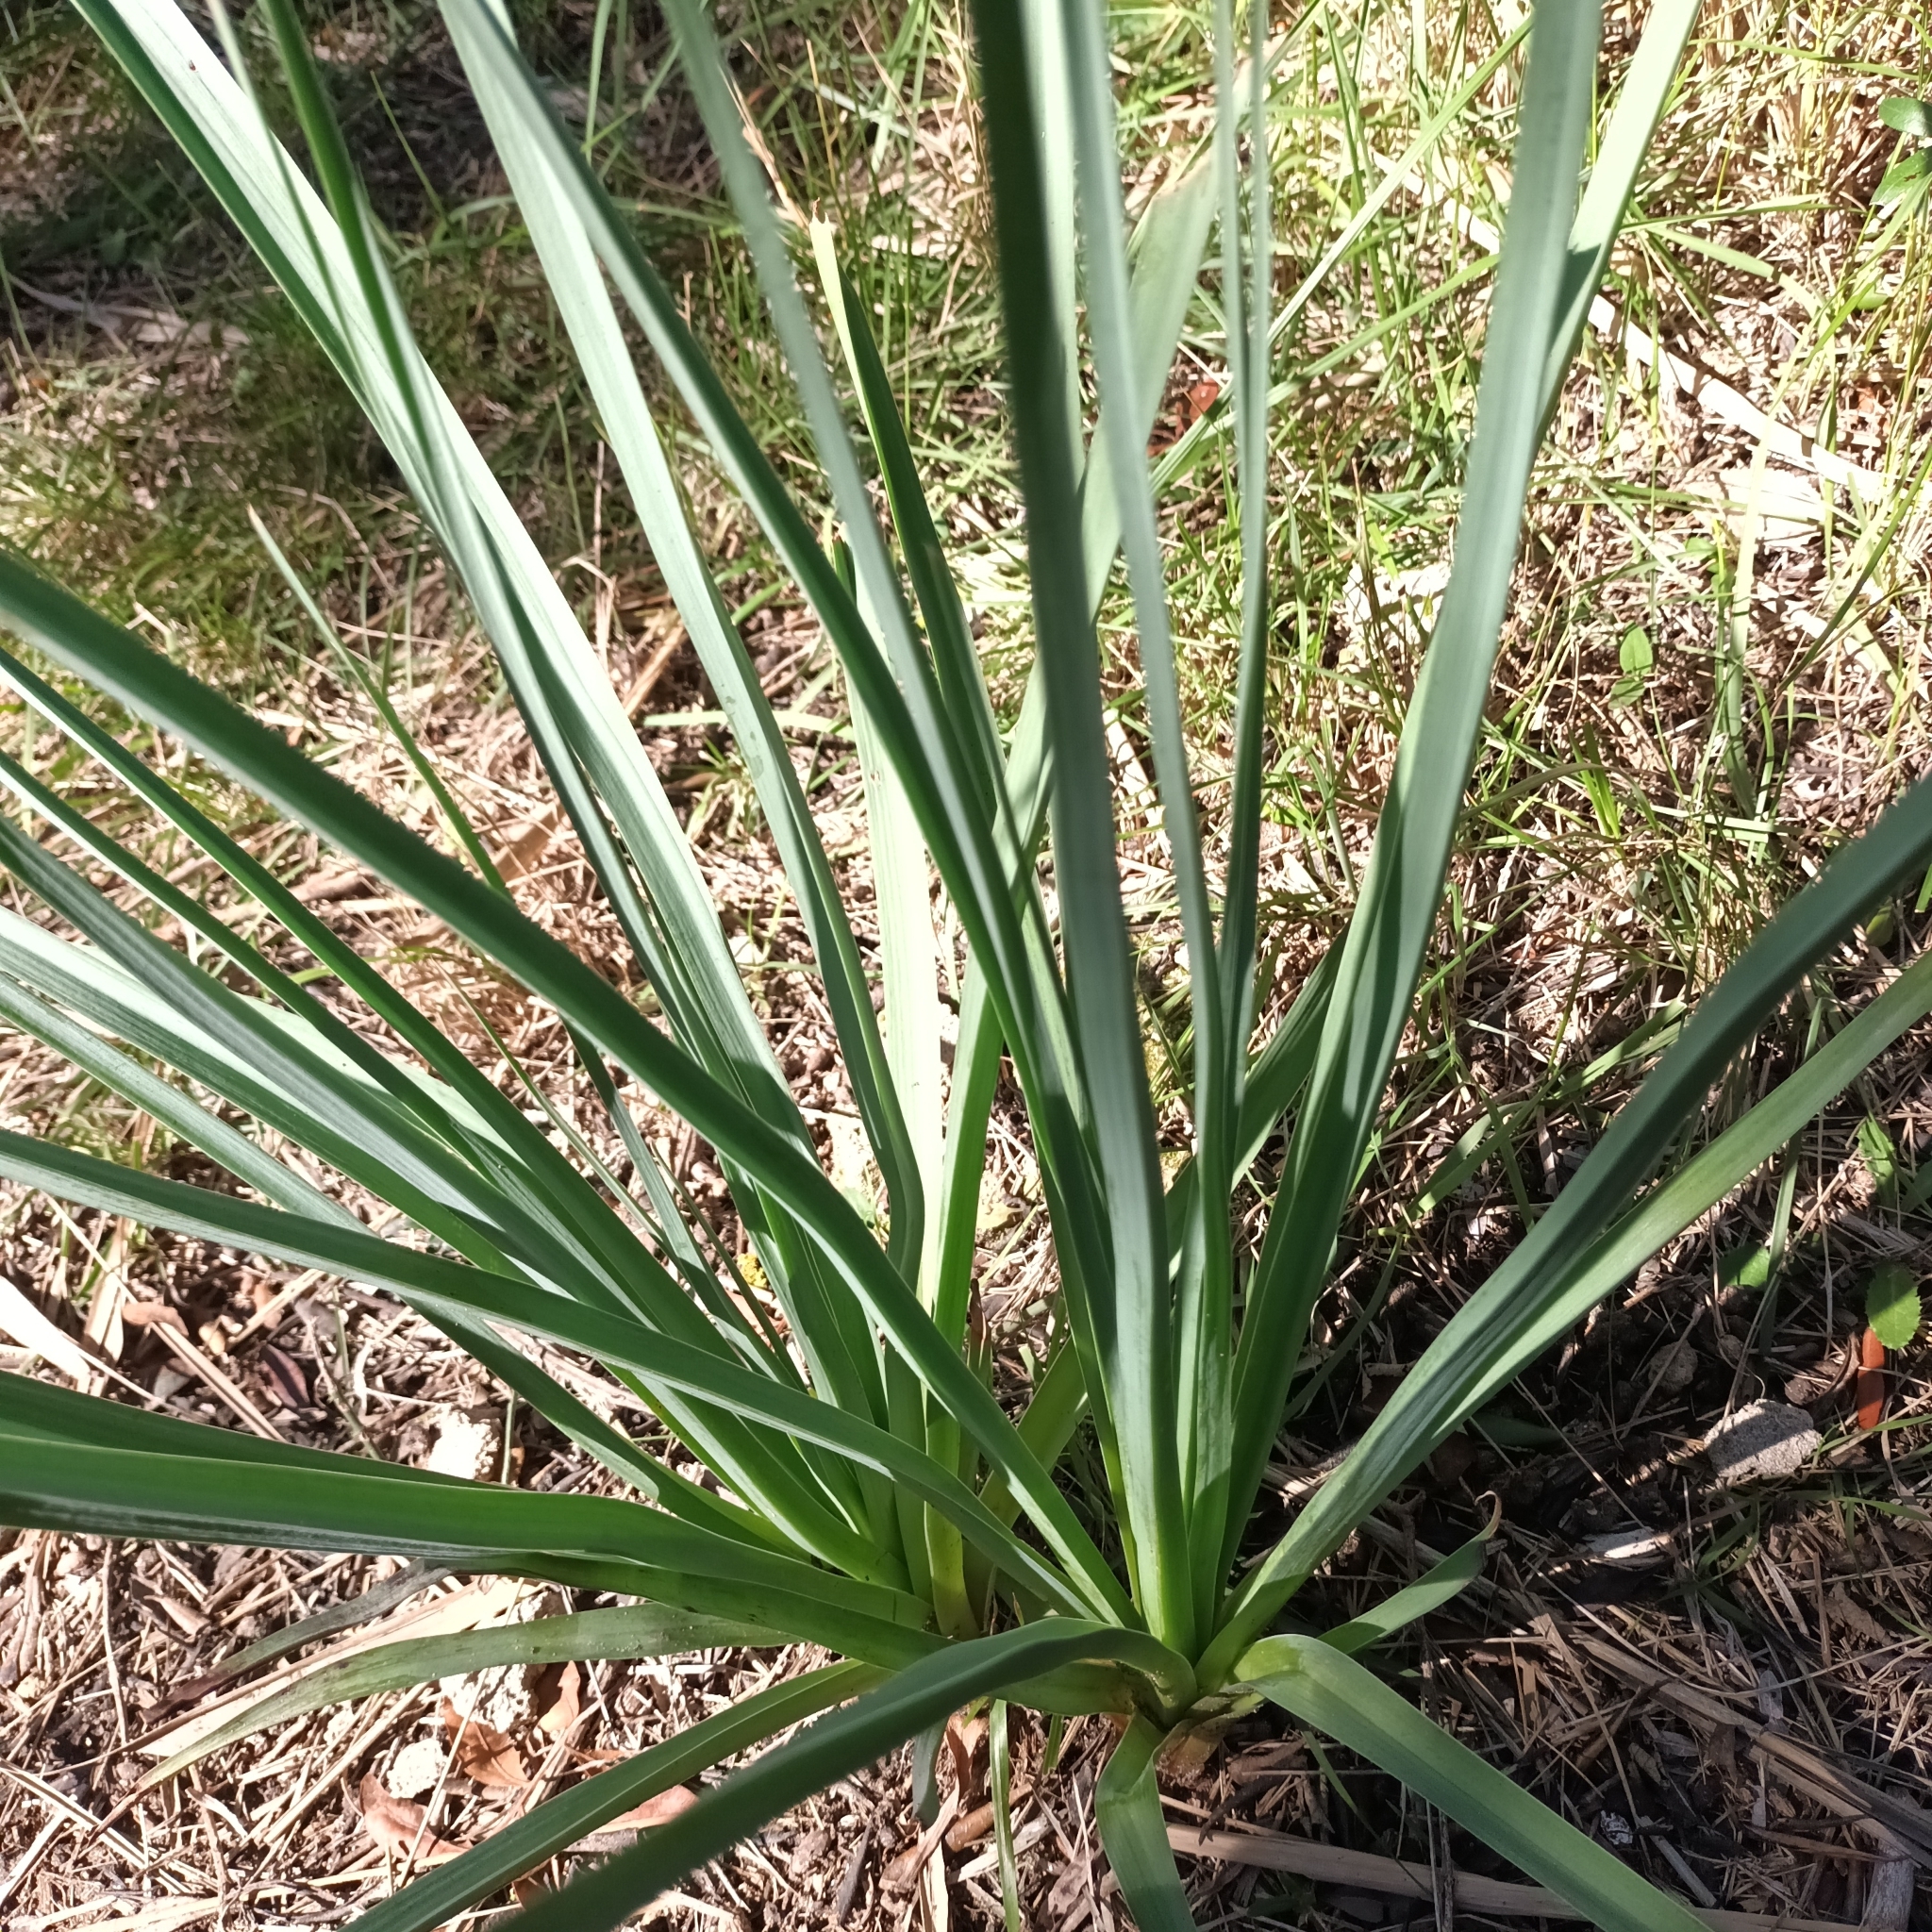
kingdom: Plantae
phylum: Tracheophyta
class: Liliopsida
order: Asparagales
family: Asphodelaceae
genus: Asphodelus
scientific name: Asphodelus ramosus
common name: Silverrod
